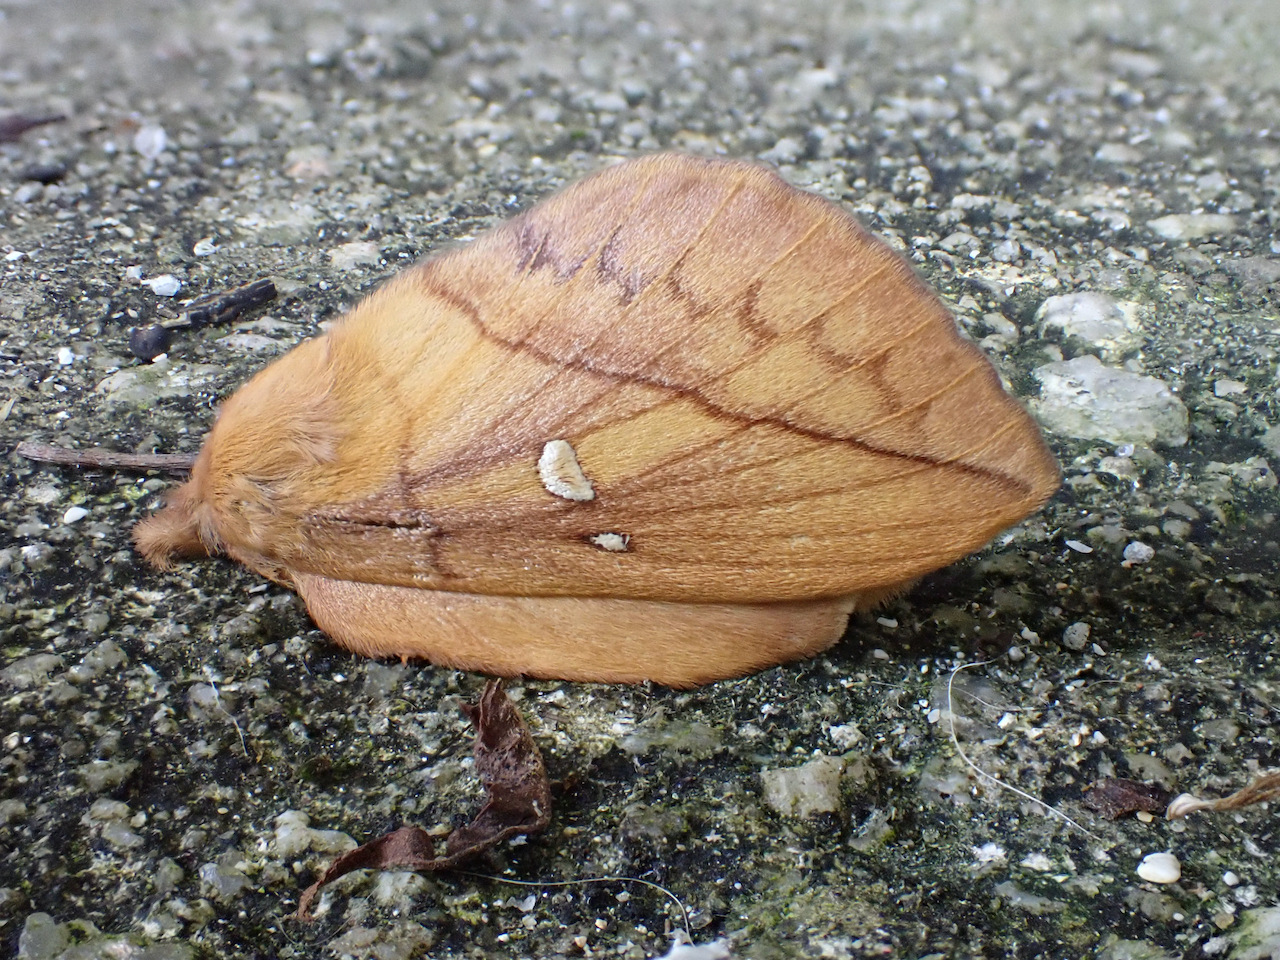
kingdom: Animalia
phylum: Arthropoda
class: Insecta
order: Lepidoptera
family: Lasiocampidae
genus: Euthrix
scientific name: Euthrix potatoria
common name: Drinker
